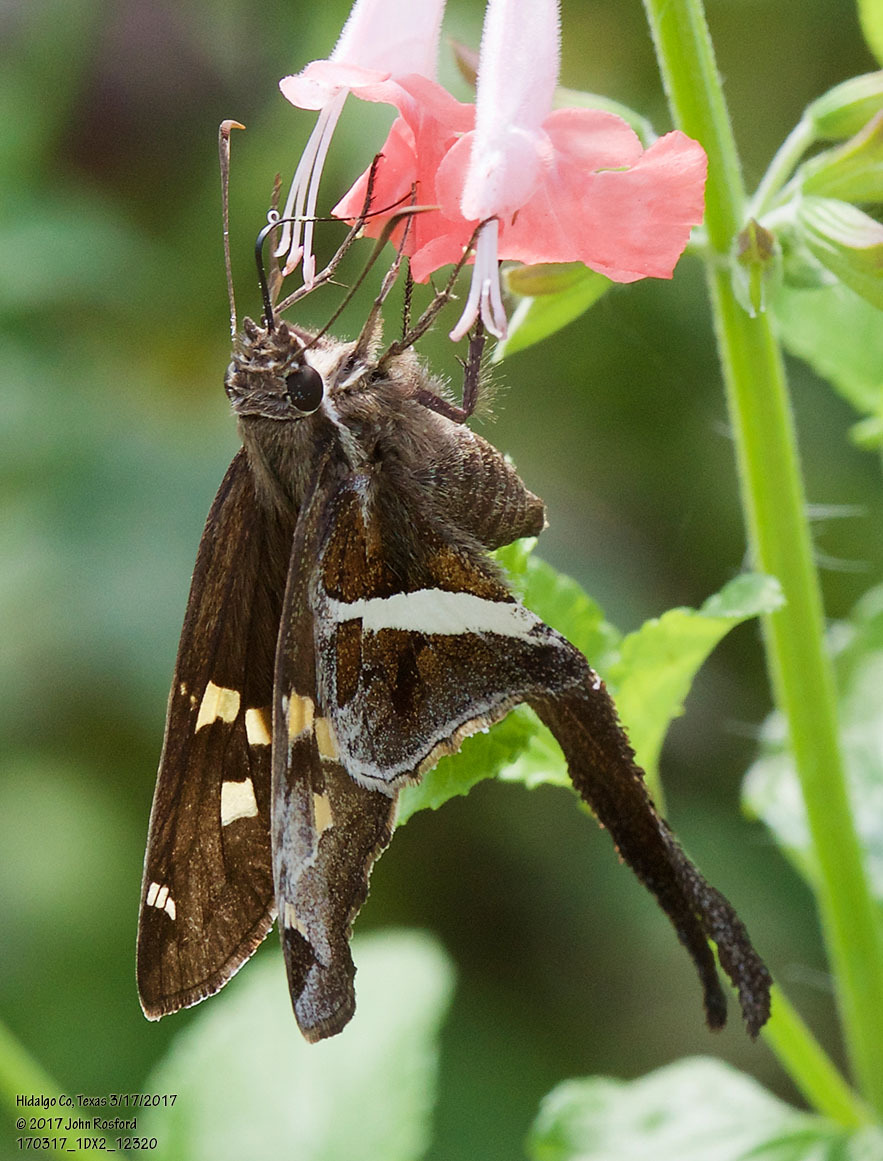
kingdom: Animalia
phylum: Arthropoda
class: Insecta
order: Lepidoptera
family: Hesperiidae
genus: Chioides
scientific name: Chioides catillus
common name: Silverbanded skipper
